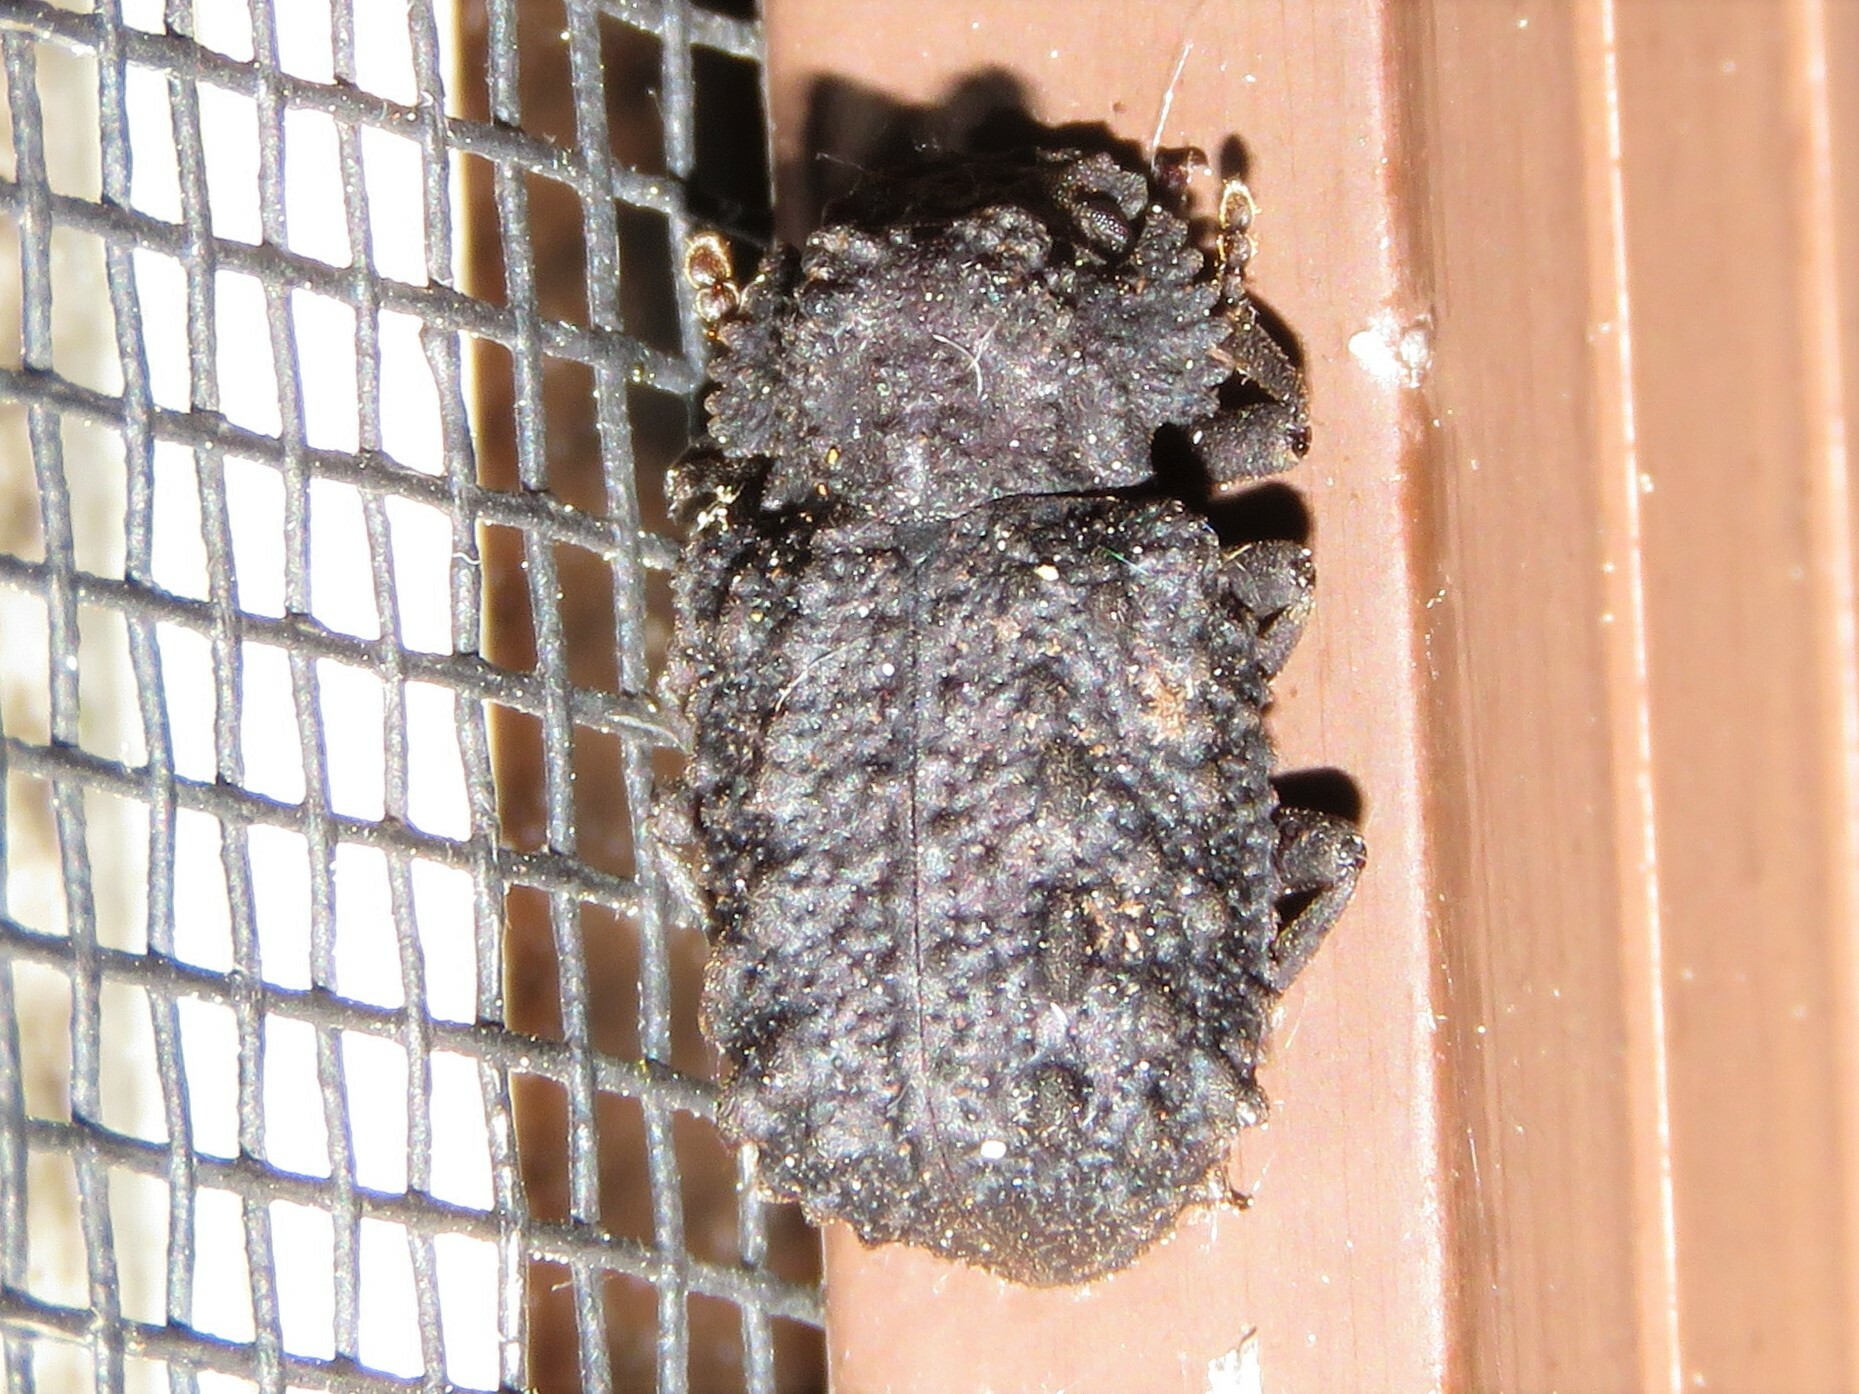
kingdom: Animalia
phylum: Arthropoda
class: Insecta
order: Coleoptera
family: Tenebrionidae
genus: Gnatocerus
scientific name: Gnatocerus cornutus
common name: Broad-horned flour beetle
